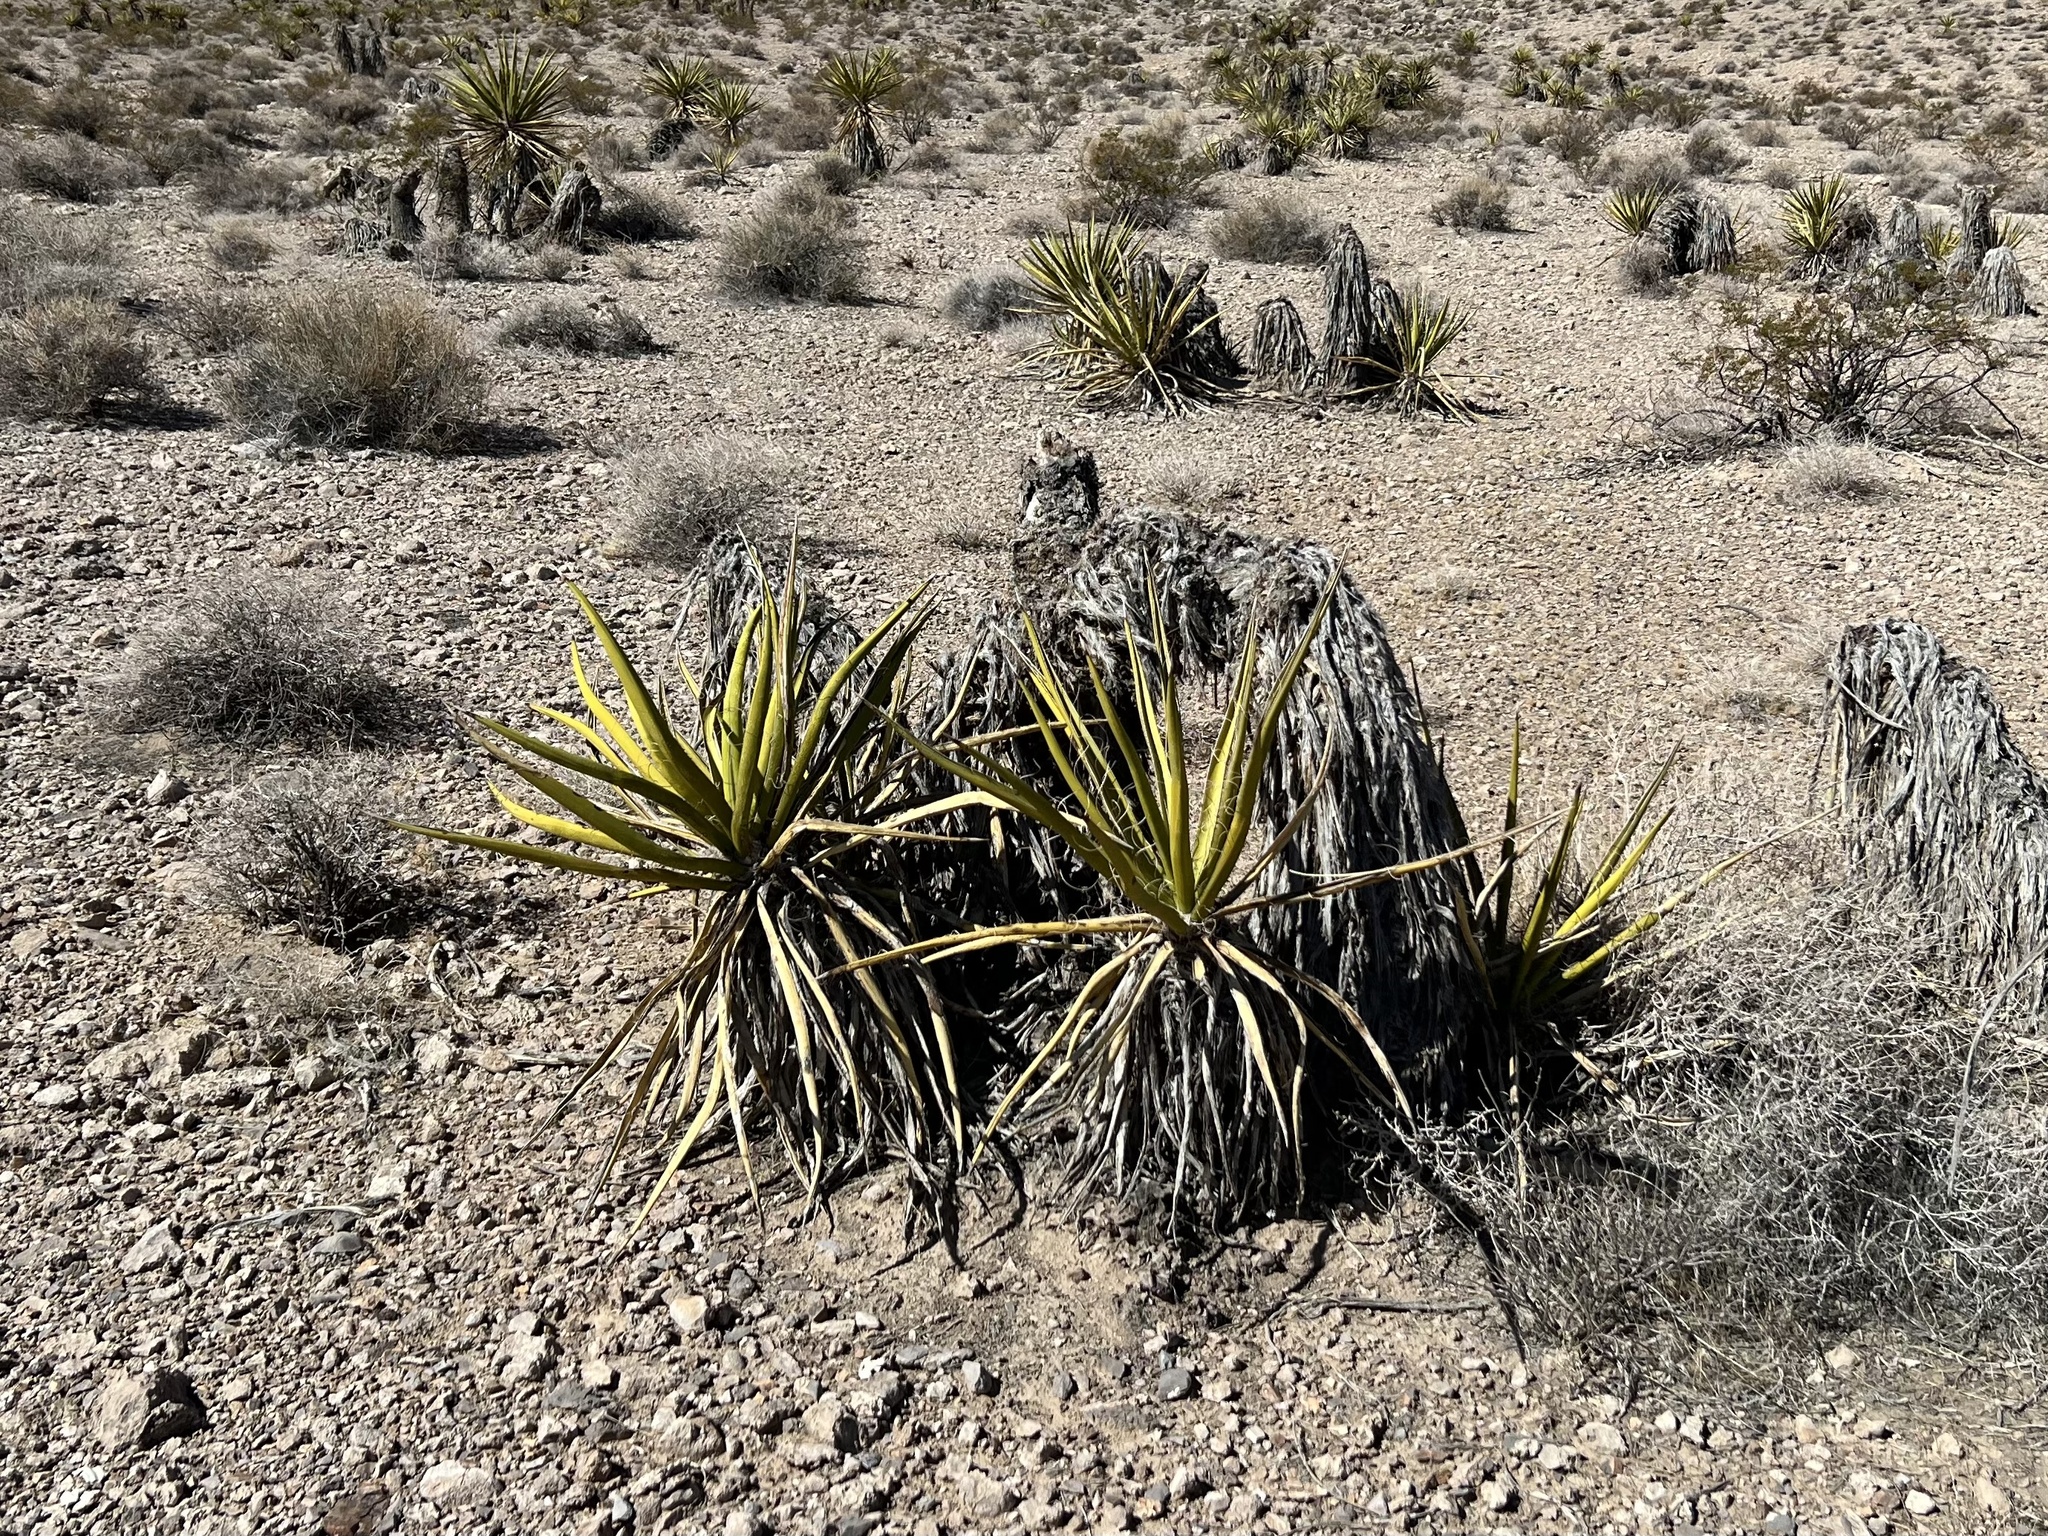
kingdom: Plantae
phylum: Tracheophyta
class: Liliopsida
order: Asparagales
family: Asparagaceae
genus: Yucca
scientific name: Yucca schidigera
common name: Mojave yucca
